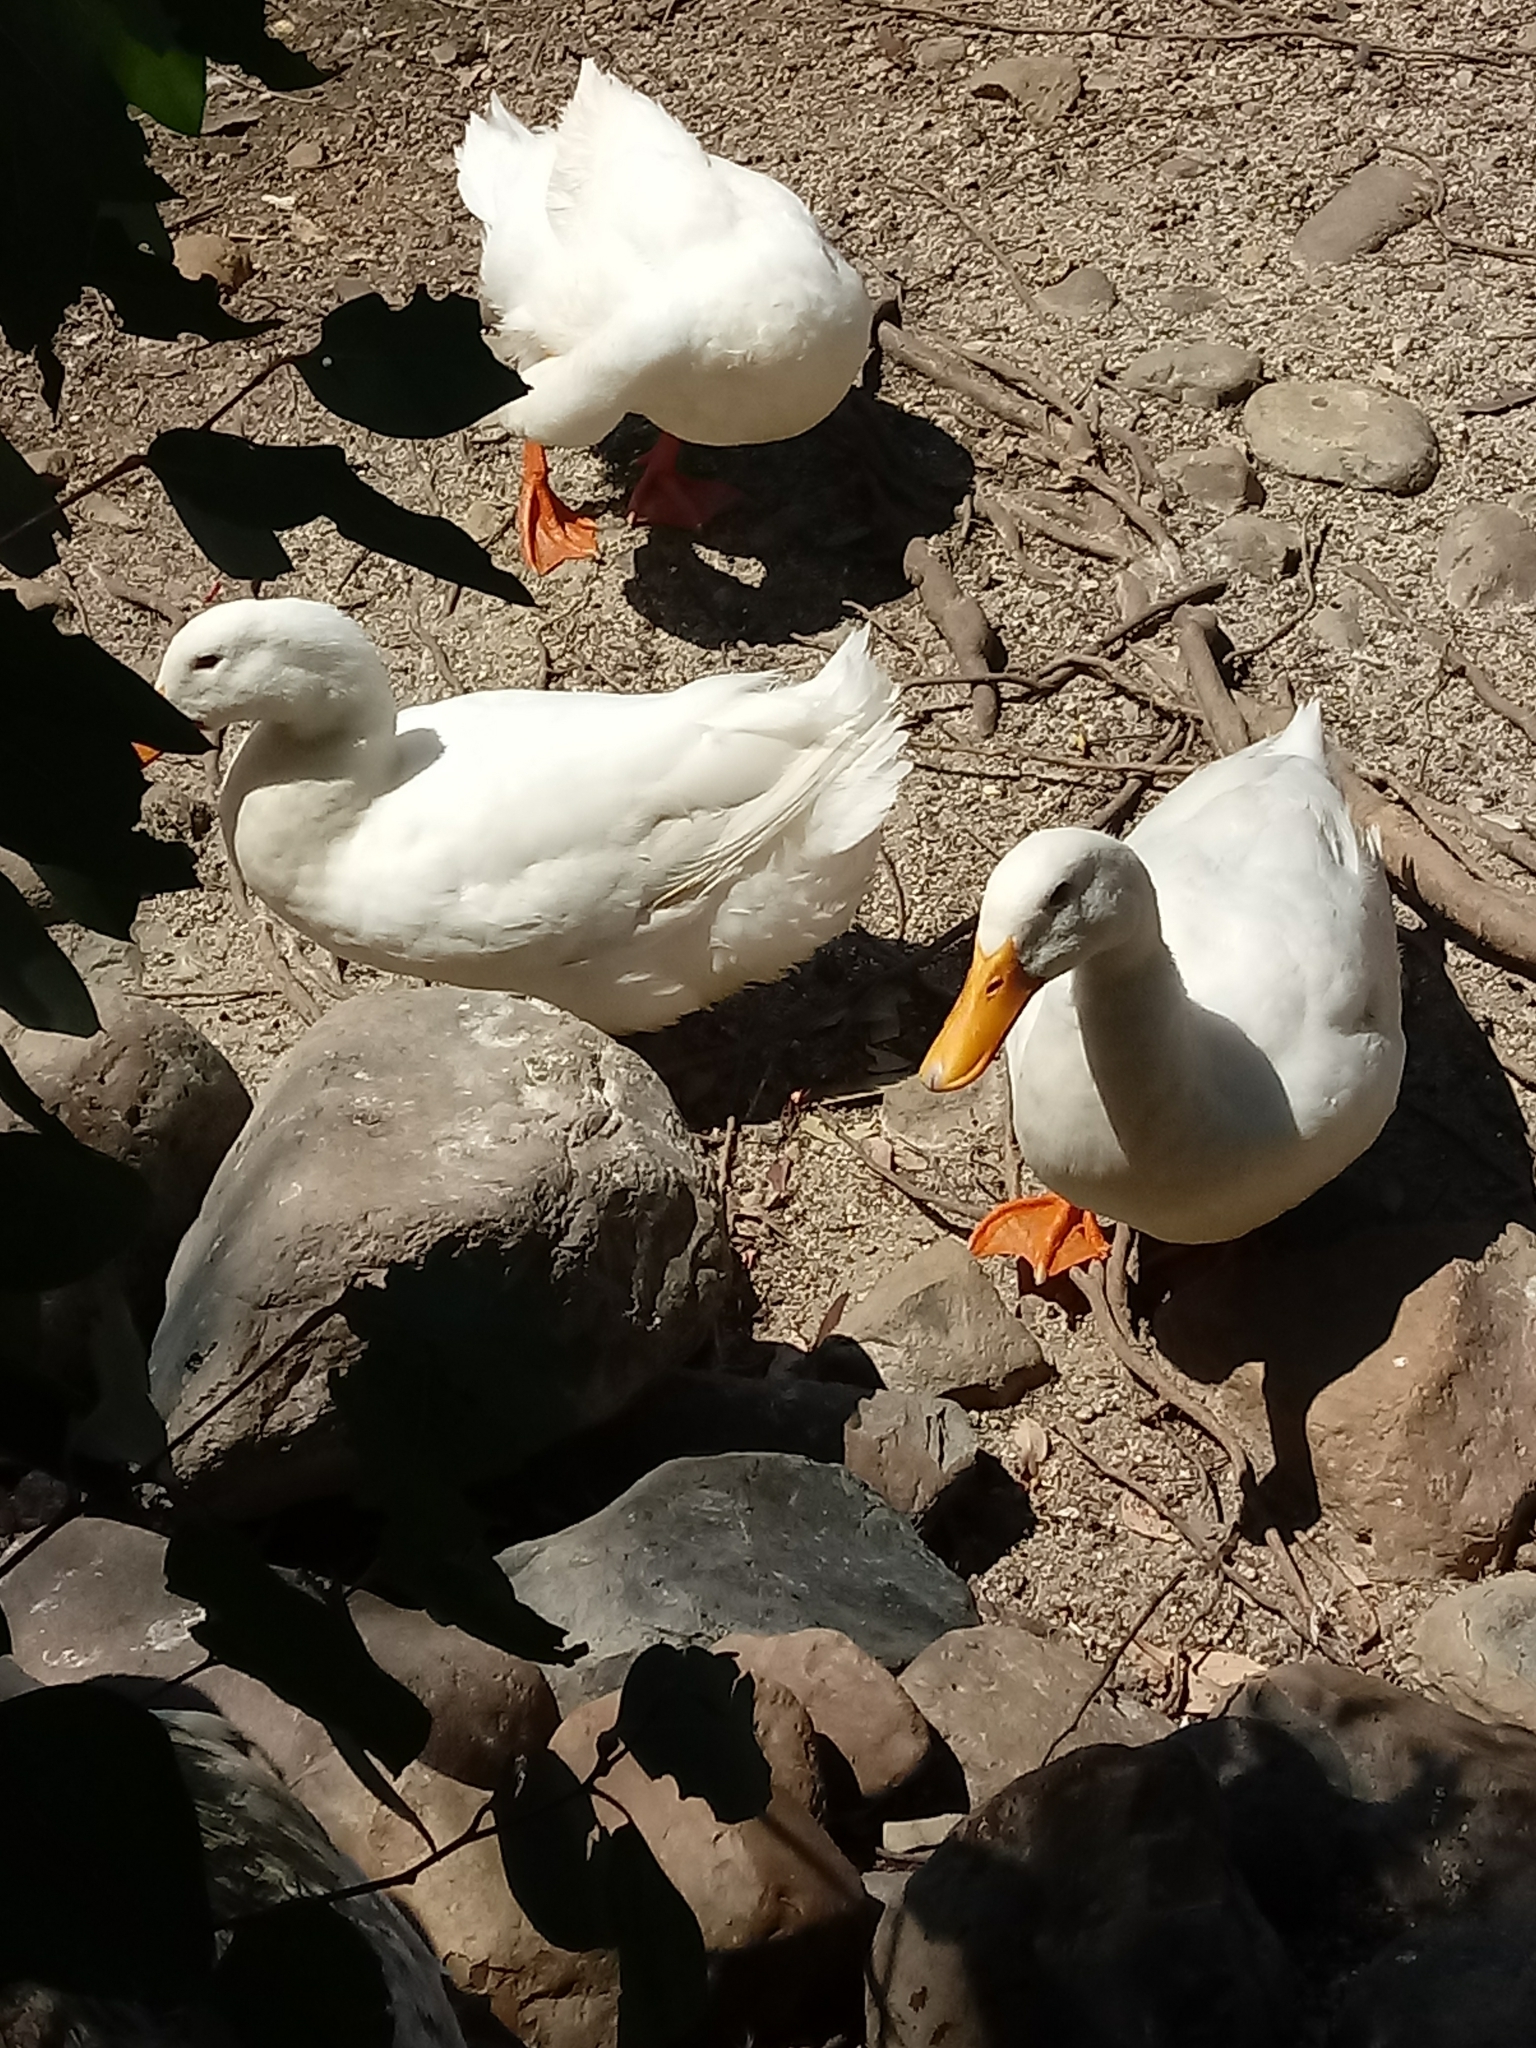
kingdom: Animalia
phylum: Chordata
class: Aves
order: Anseriformes
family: Anatidae
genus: Anas
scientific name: Anas platyrhynchos
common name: Mallard
